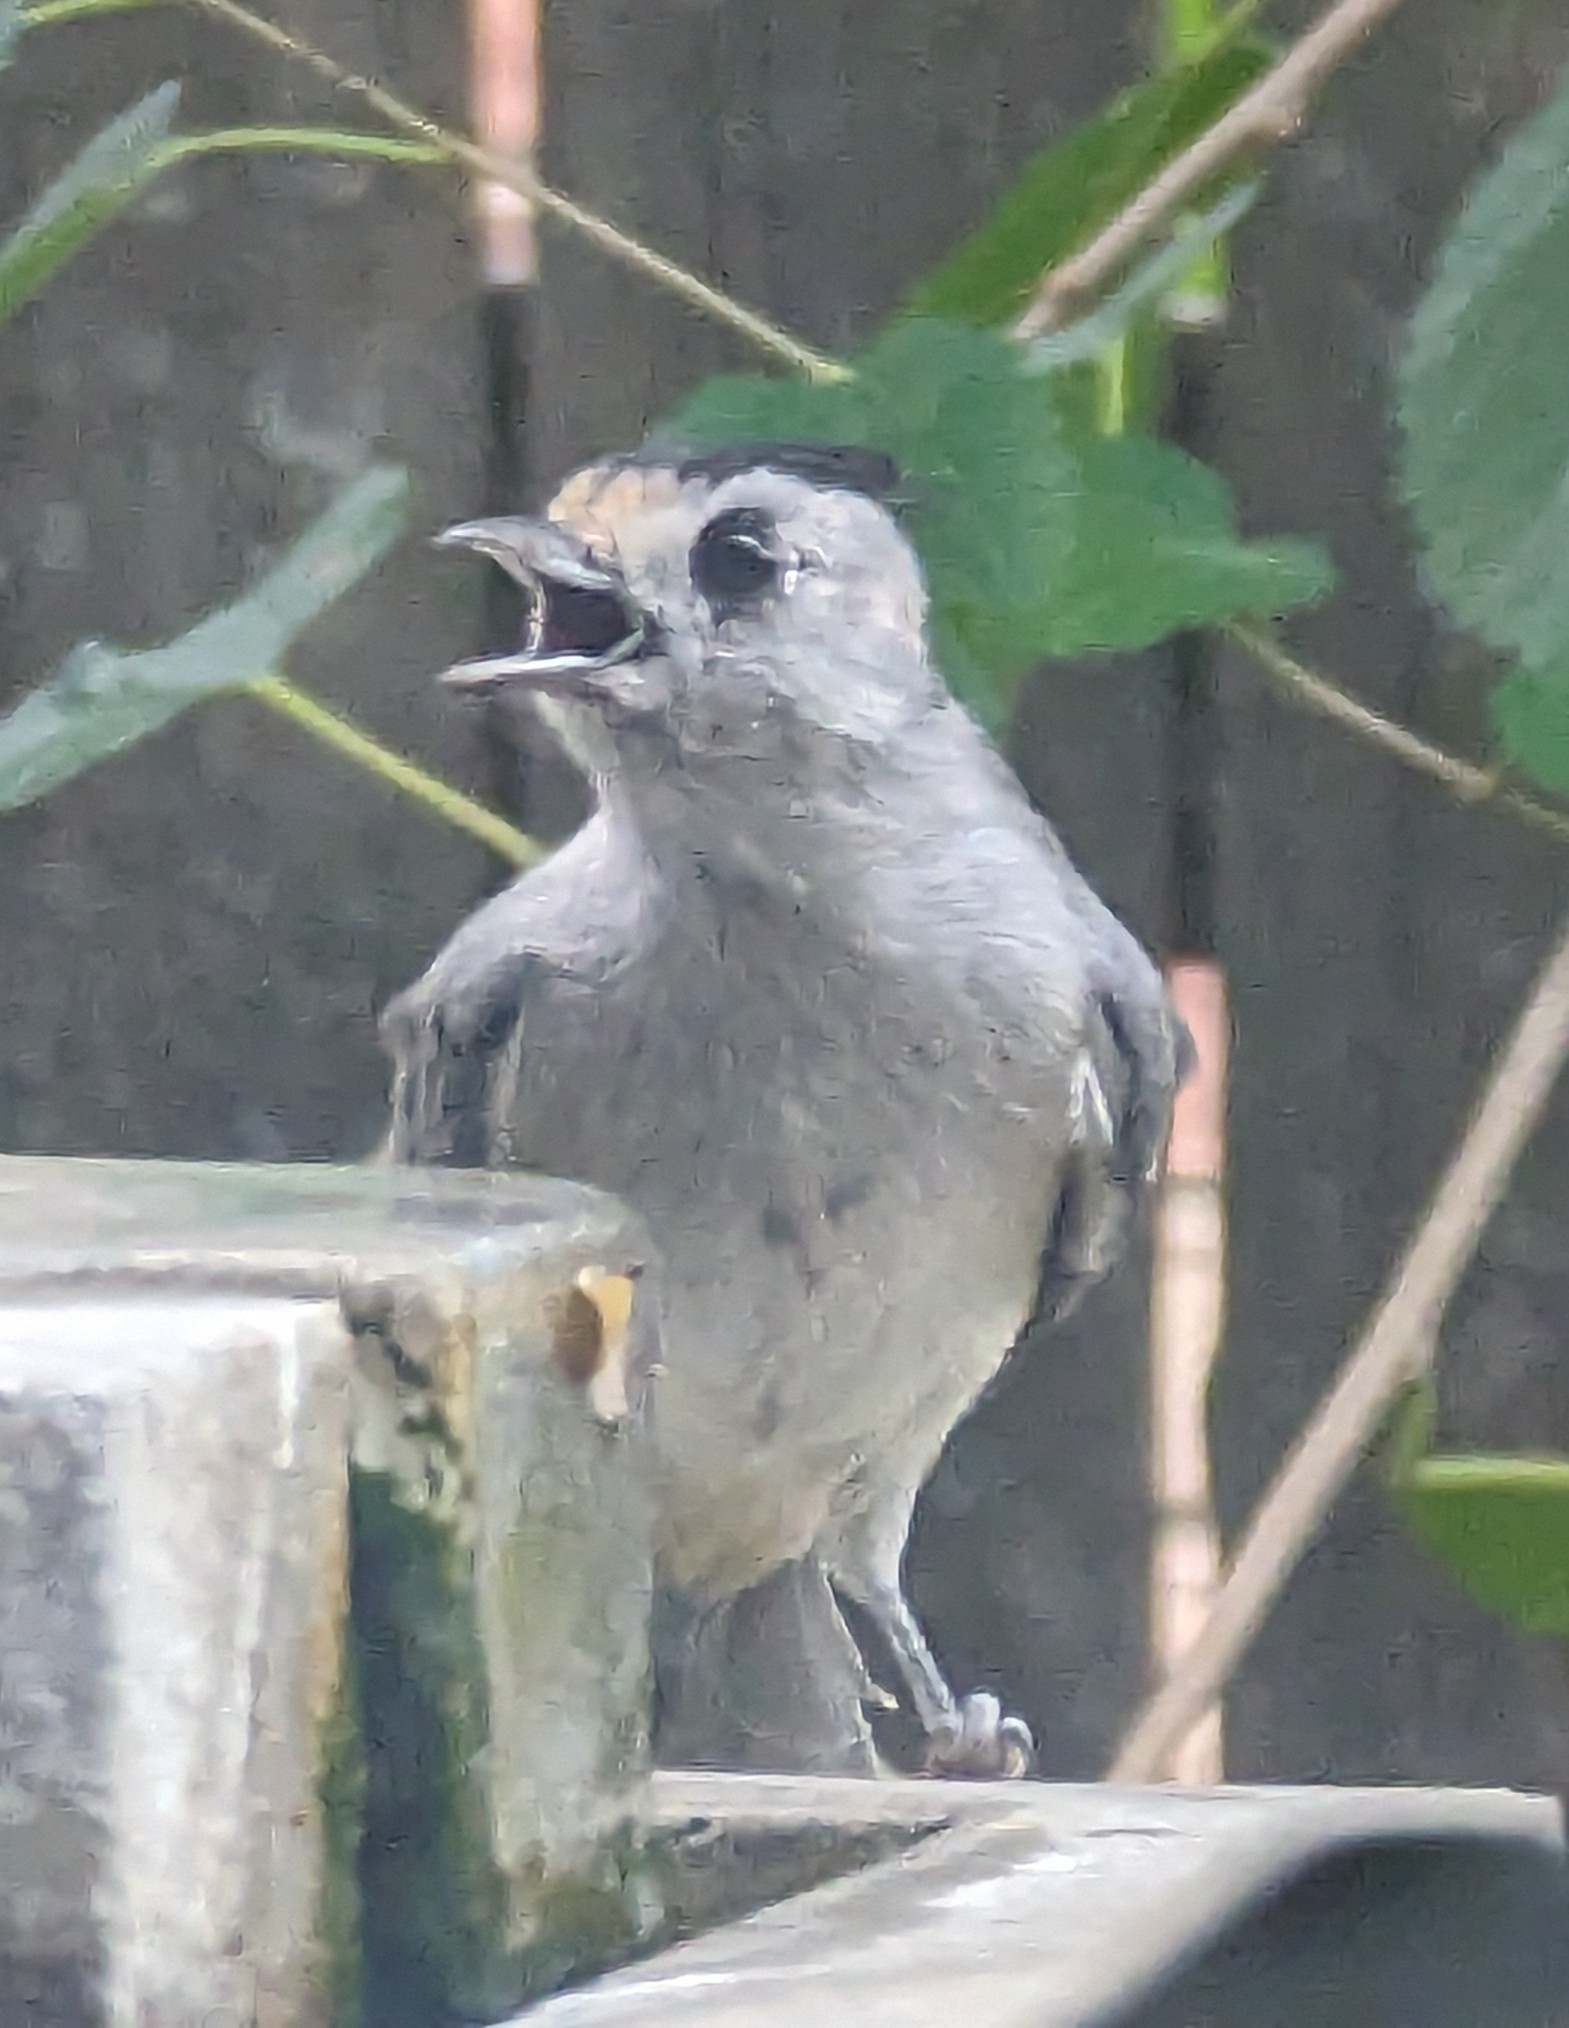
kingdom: Animalia
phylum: Chordata
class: Aves
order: Passeriformes
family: Paridae
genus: Baeolophus
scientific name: Baeolophus atricristatus
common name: Black-crested titmouse
